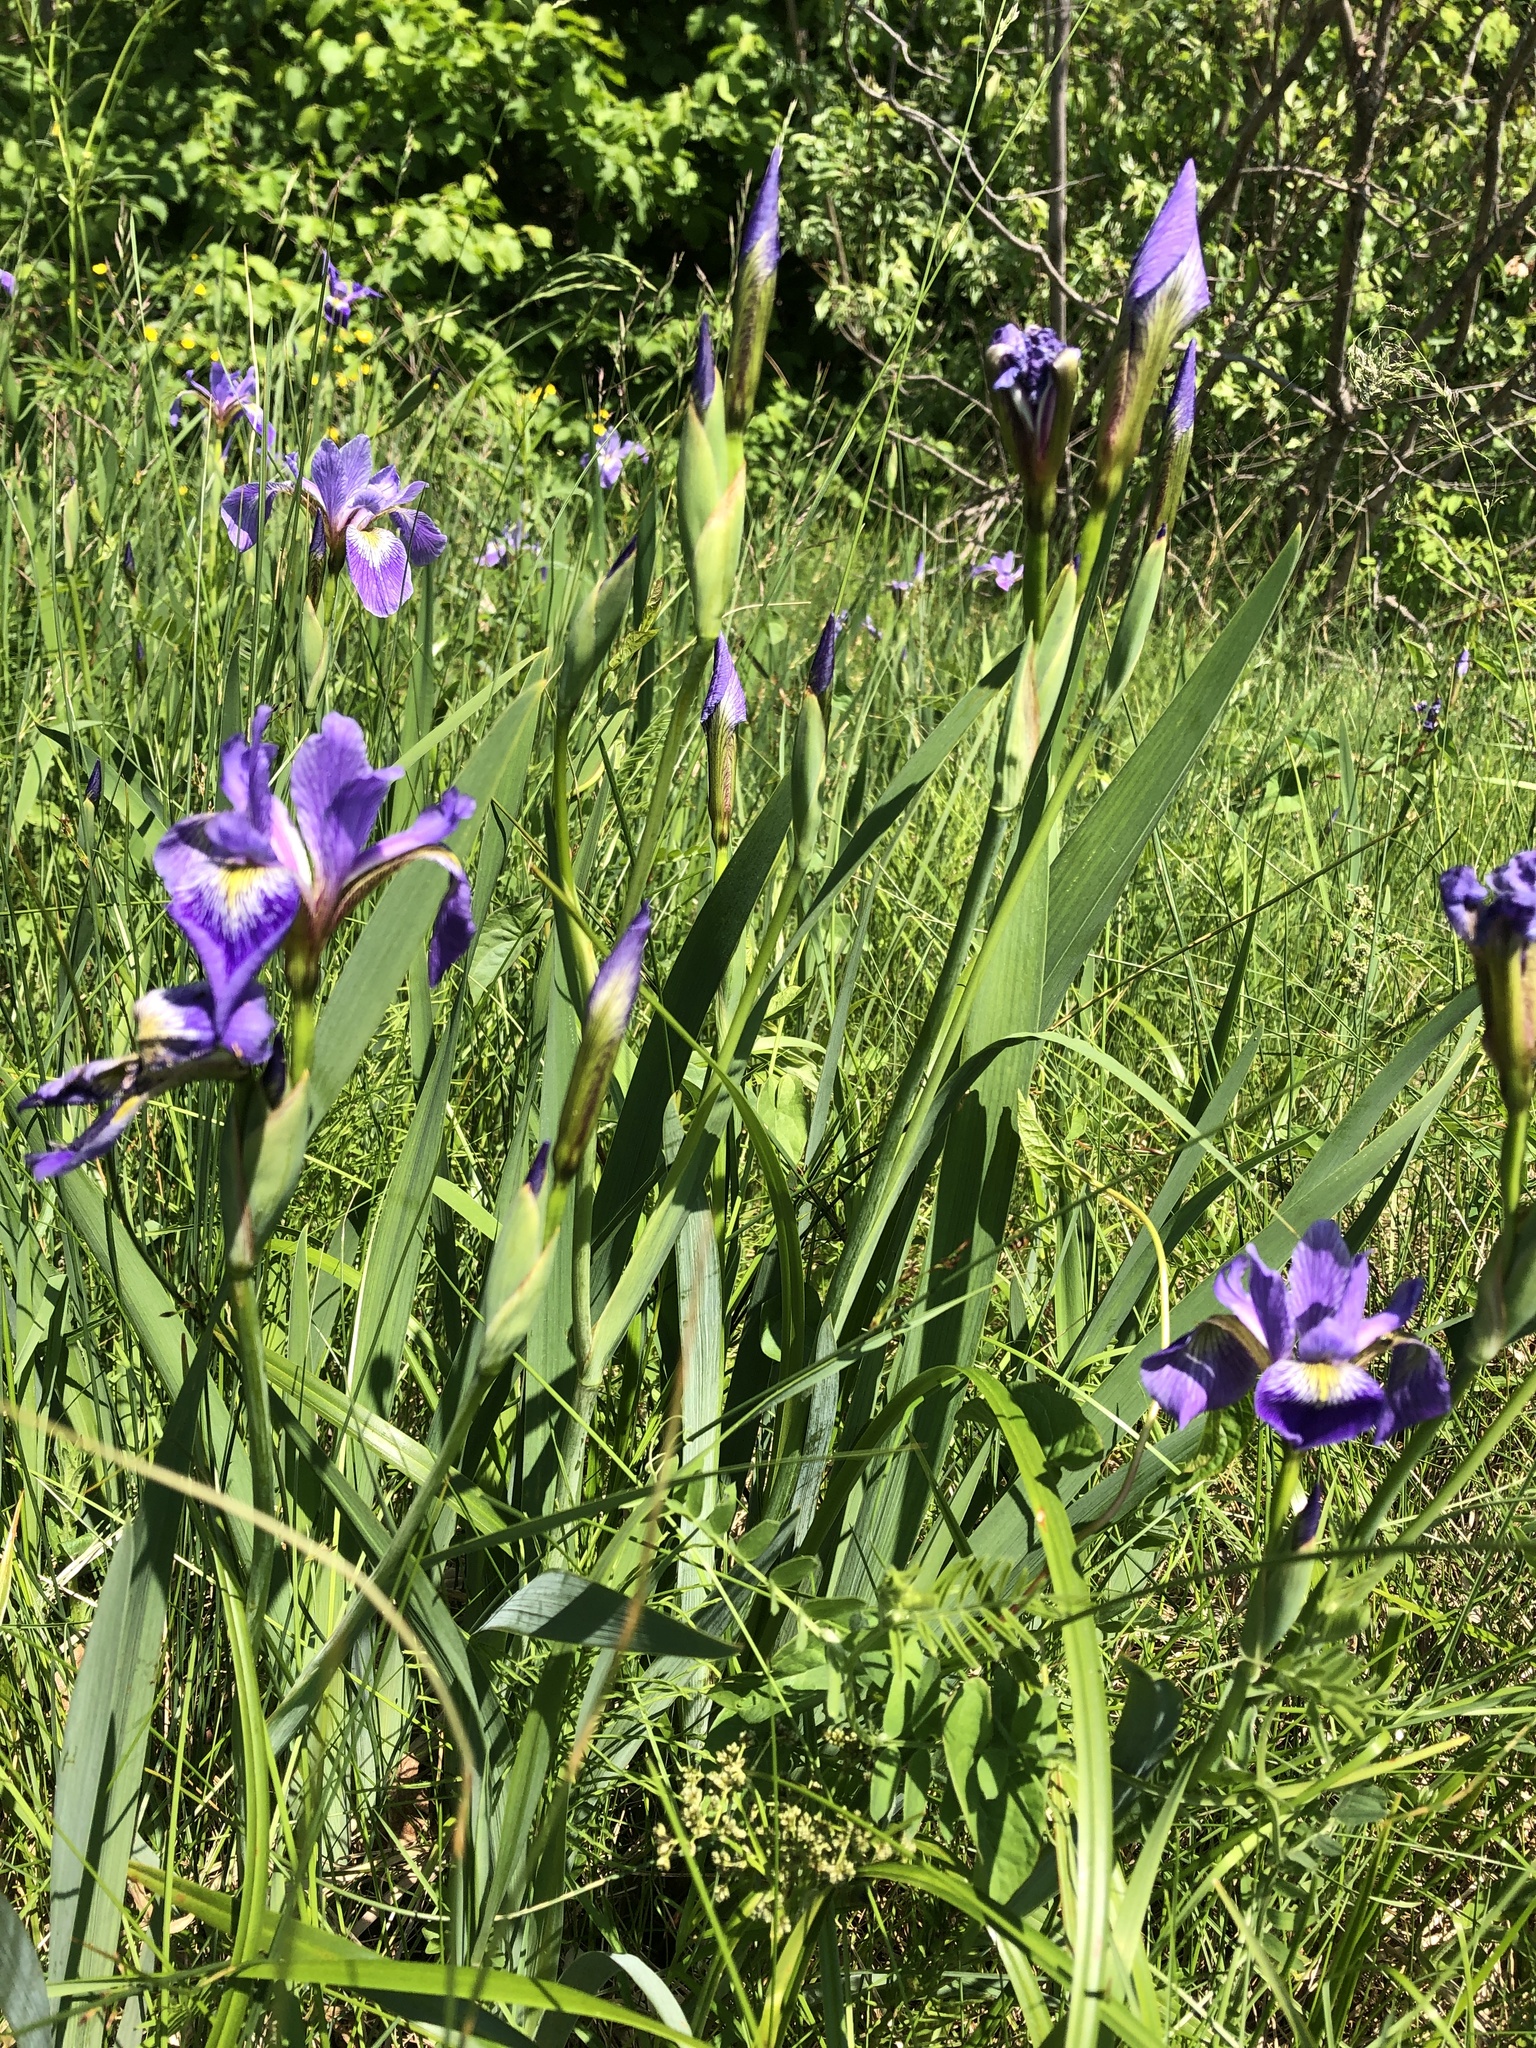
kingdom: Plantae
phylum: Tracheophyta
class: Liliopsida
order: Asparagales
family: Iridaceae
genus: Iris
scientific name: Iris versicolor
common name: Purple iris
